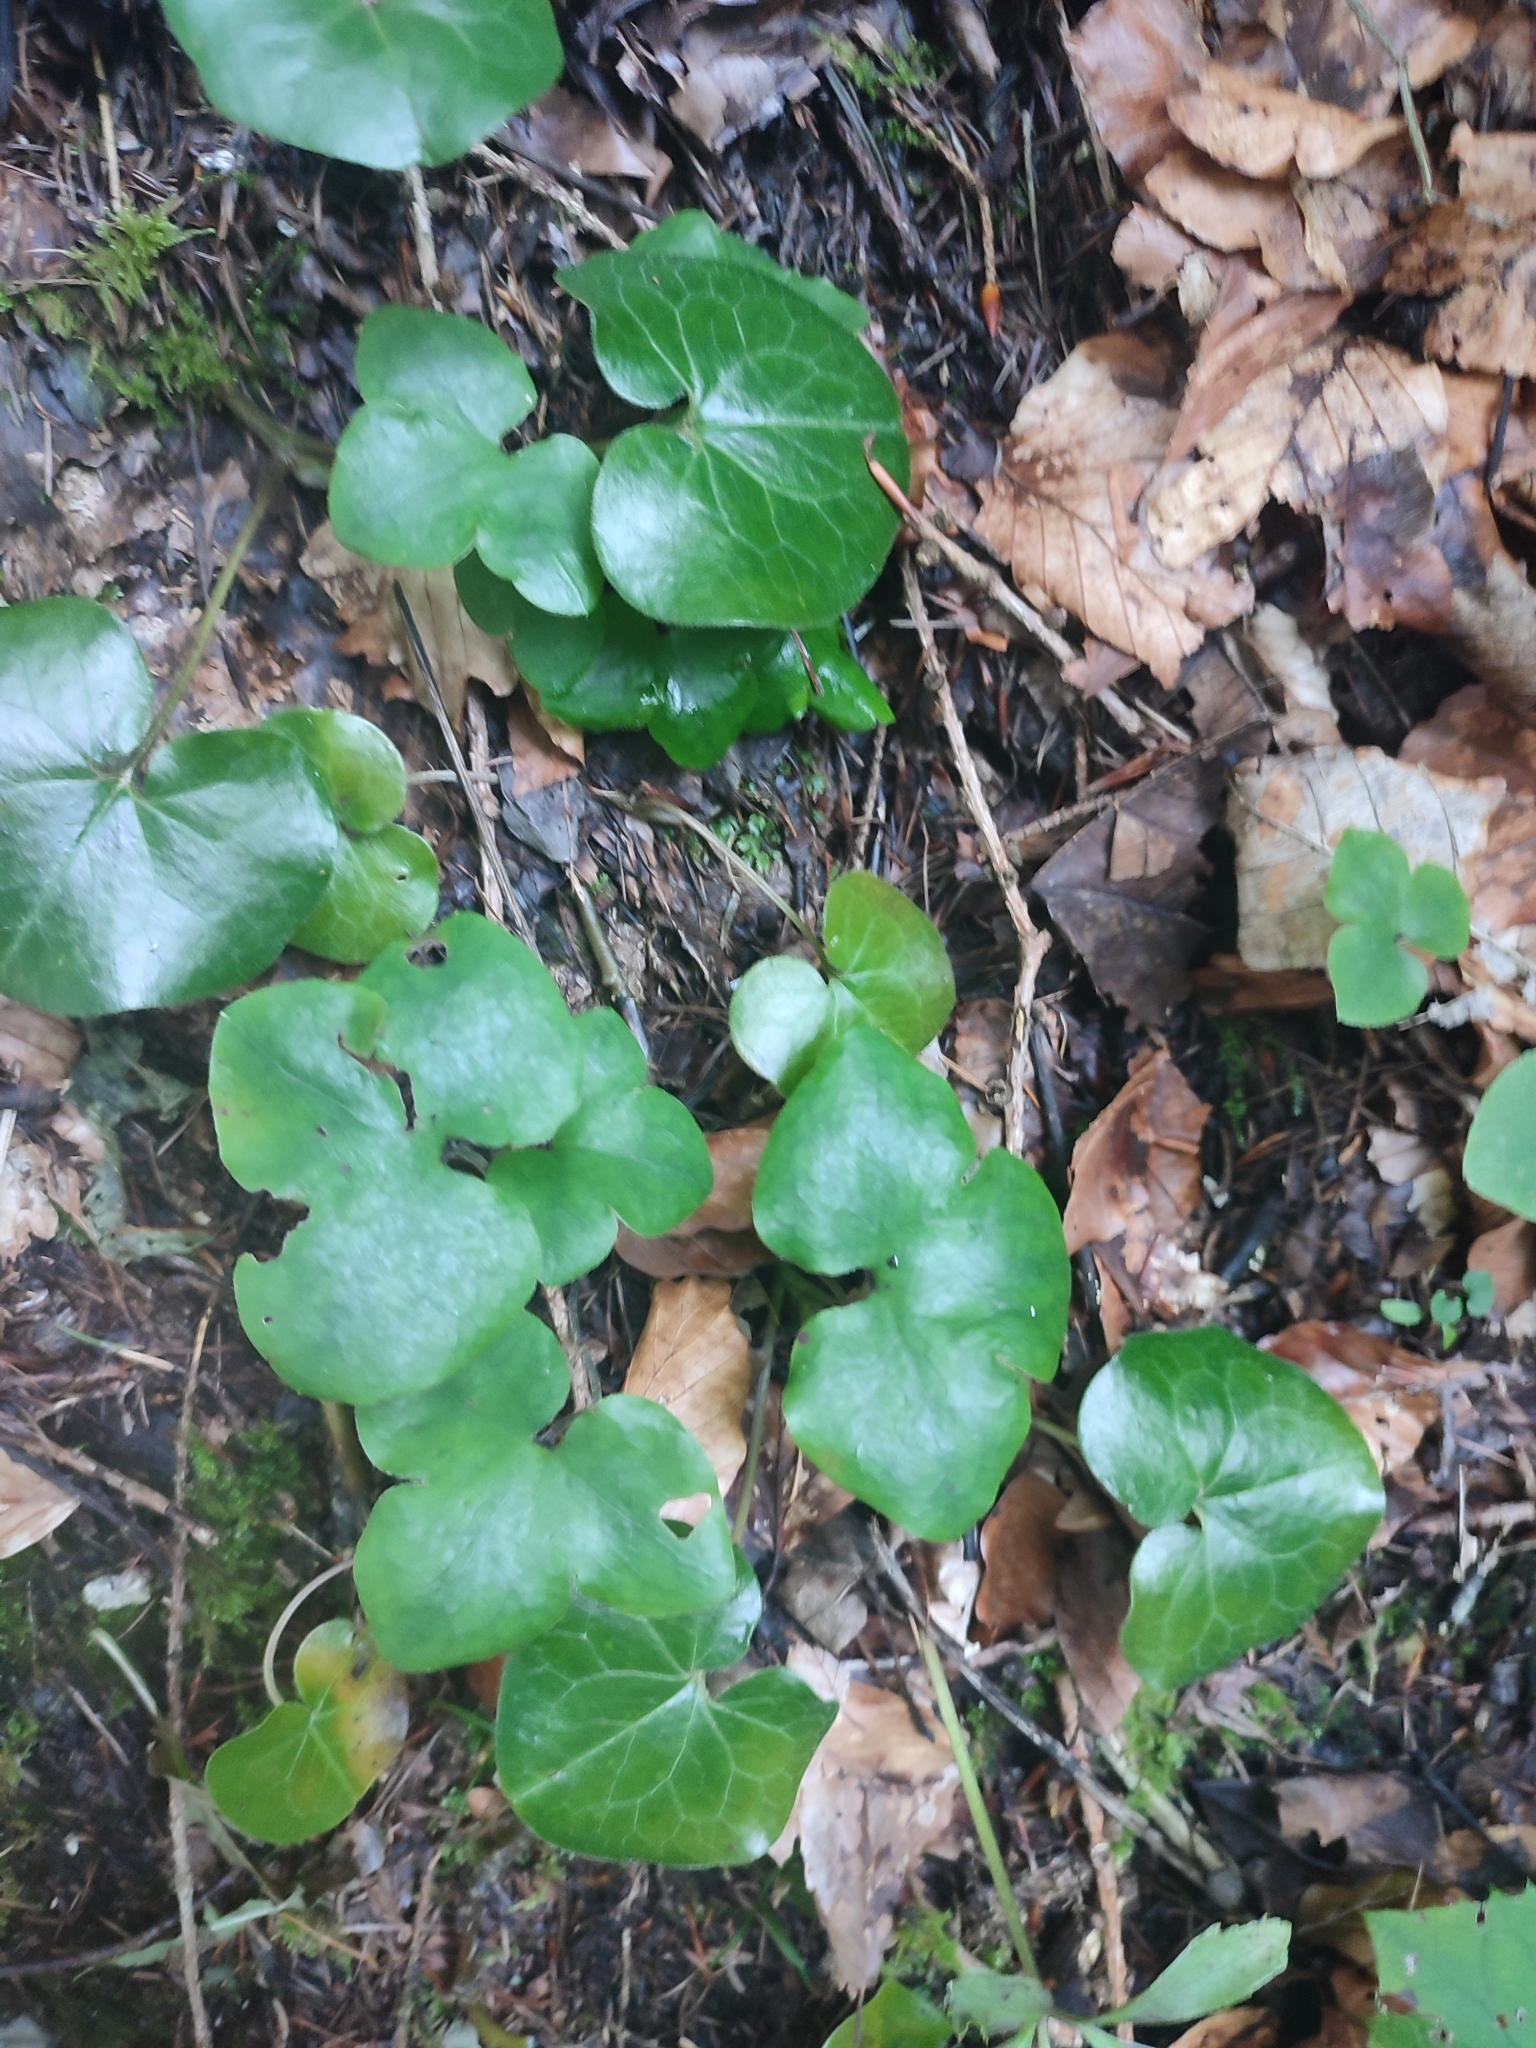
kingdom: Plantae
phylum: Tracheophyta
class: Magnoliopsida
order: Ranunculales
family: Ranunculaceae
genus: Hepatica
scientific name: Hepatica nobilis
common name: Liverleaf
